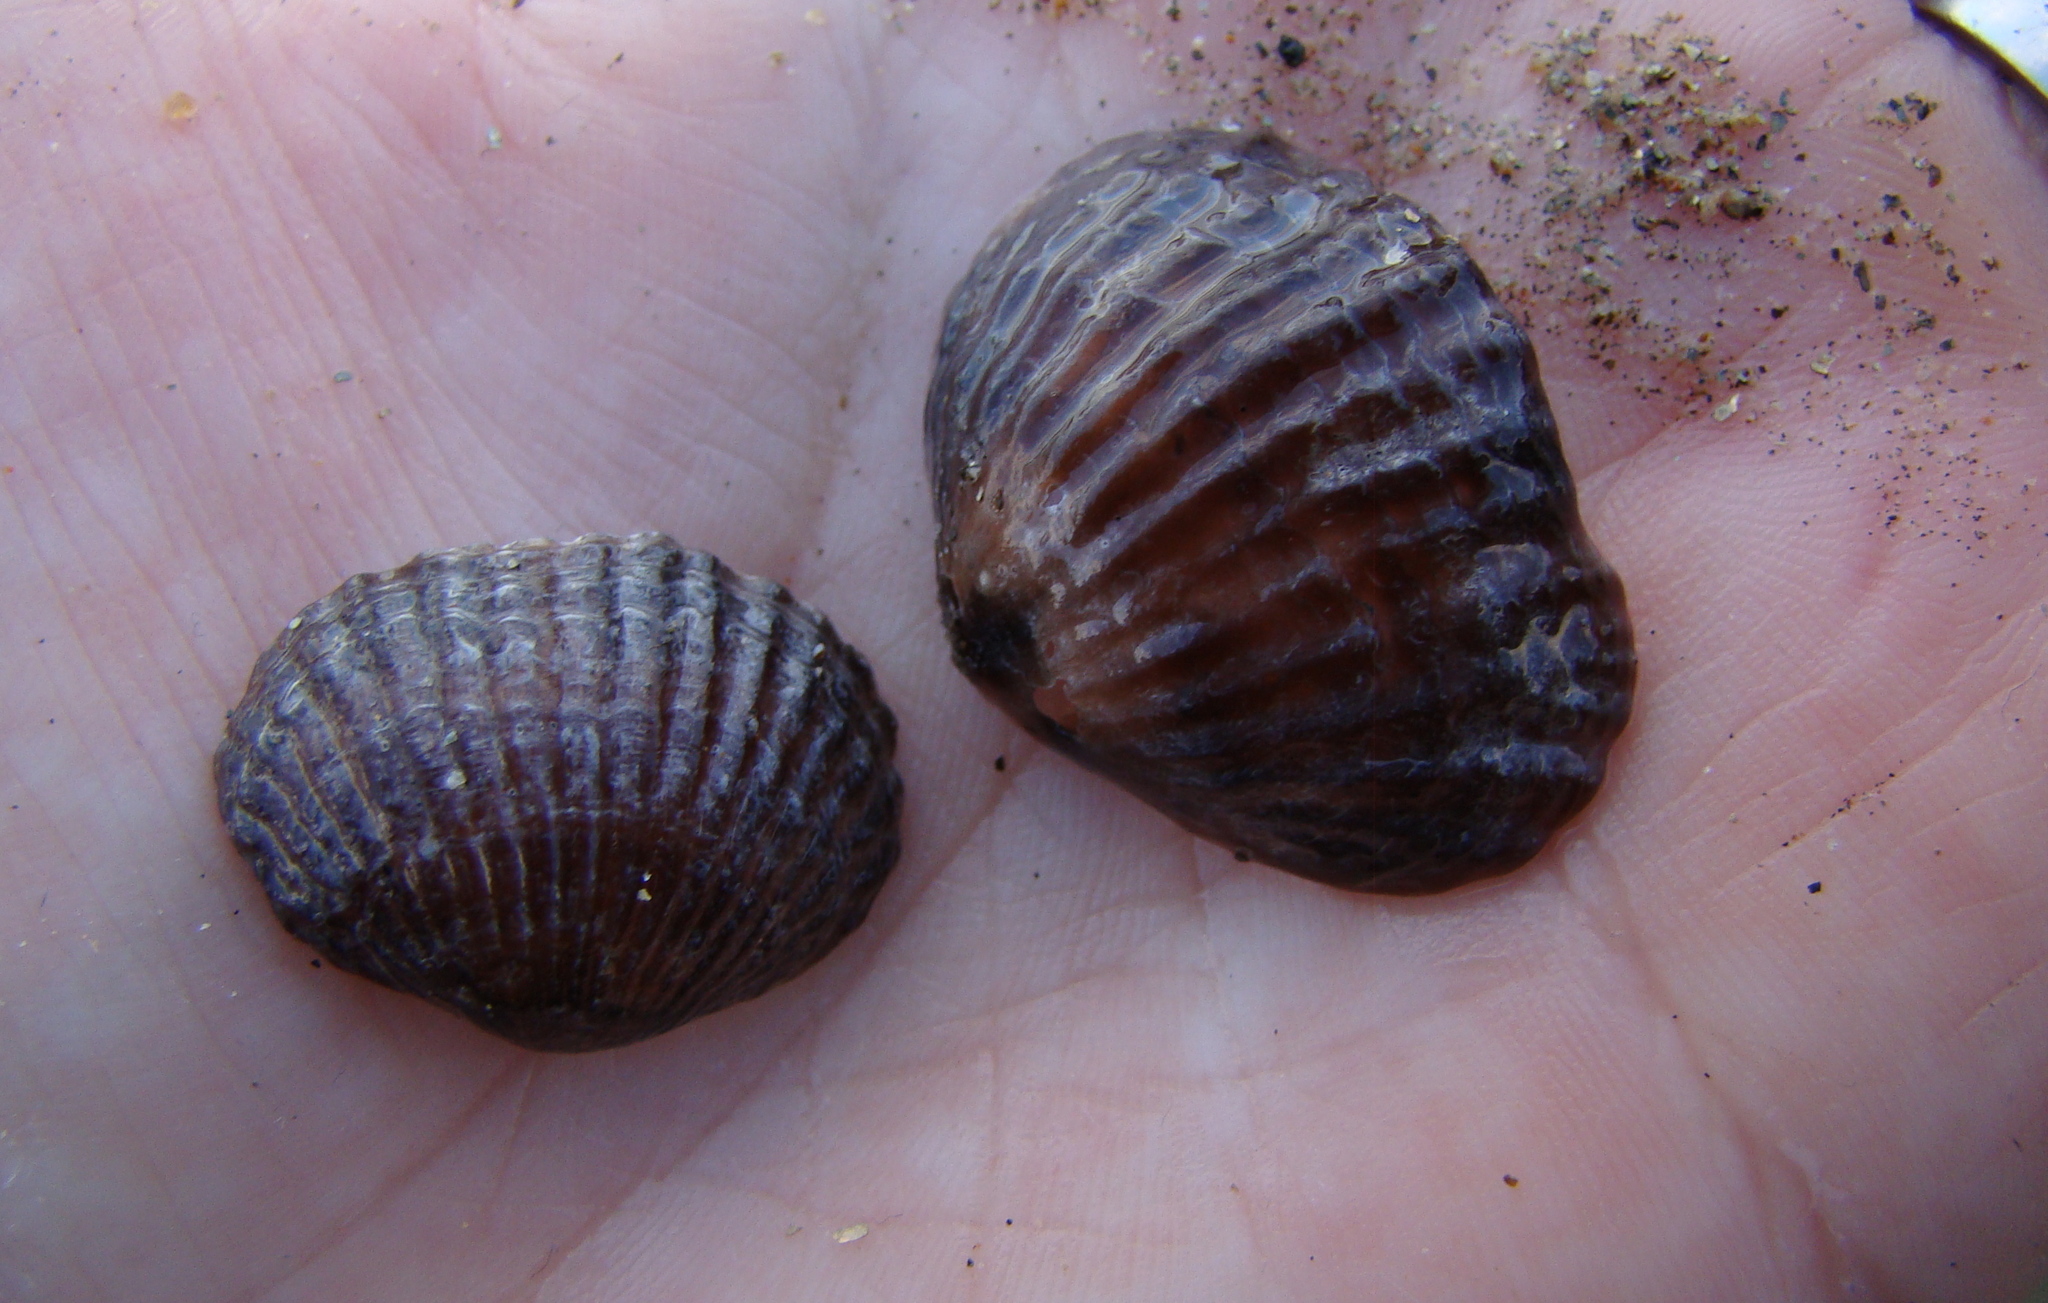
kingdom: Animalia
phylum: Brachiopoda
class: Rhynchonellata
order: Rhynchonellida
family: Notosariidae
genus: Notosaria
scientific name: Notosaria nigricans
